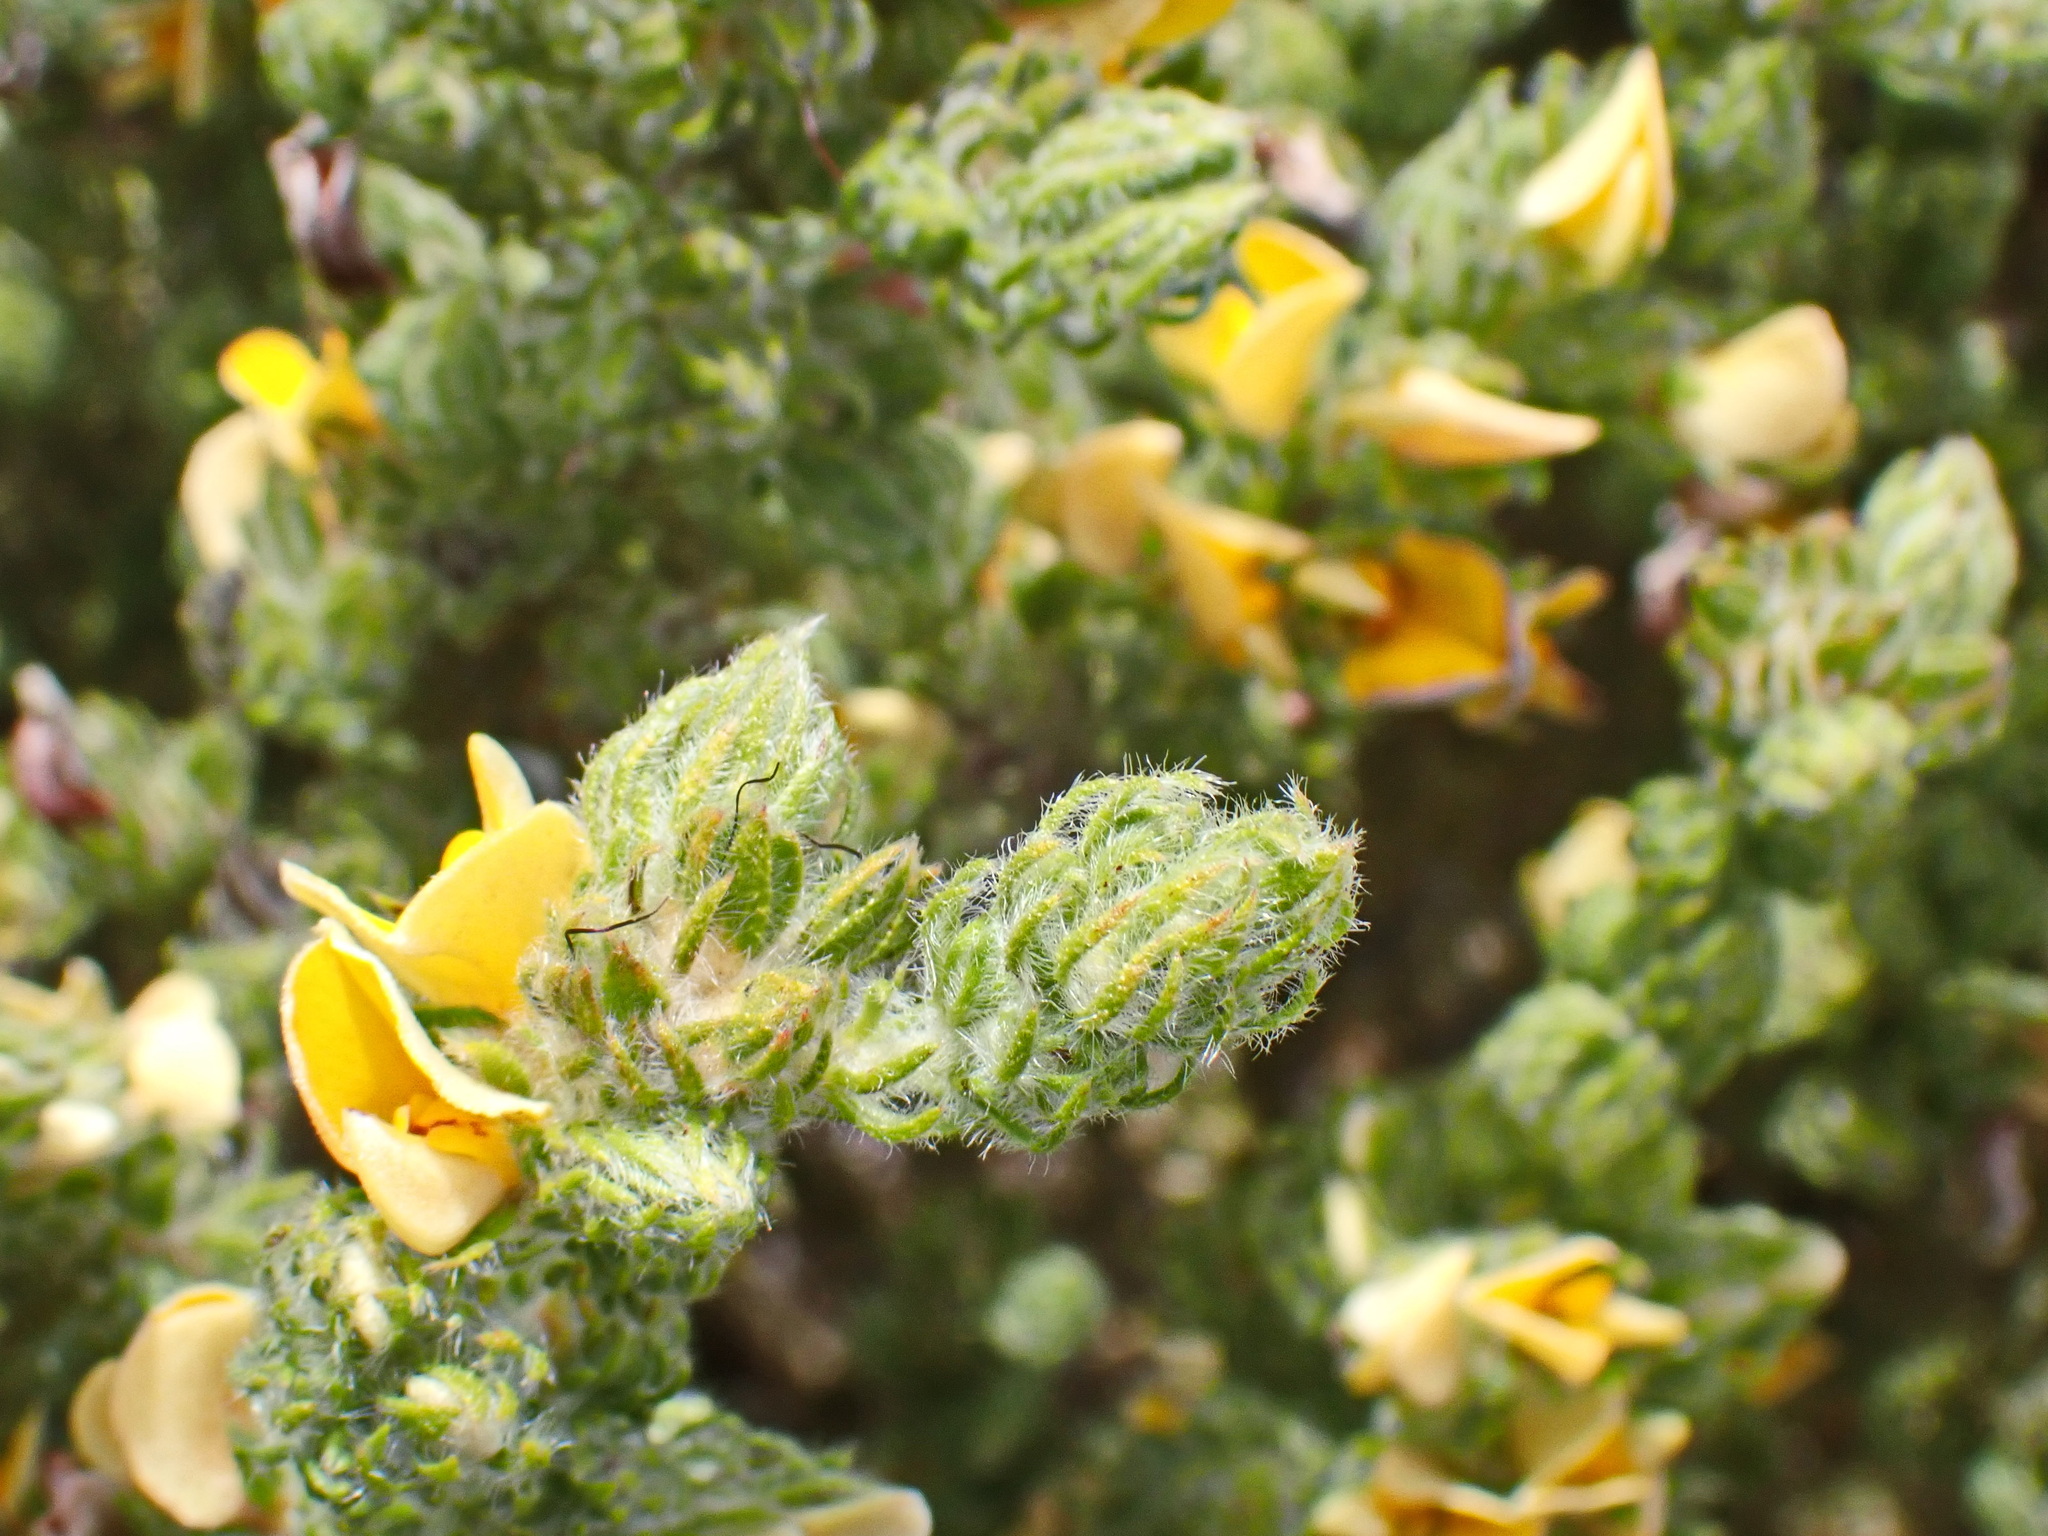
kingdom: Plantae
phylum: Tracheophyta
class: Magnoliopsida
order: Fabales
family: Fabaceae
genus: Aspalathus
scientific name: Aspalathus shawii
